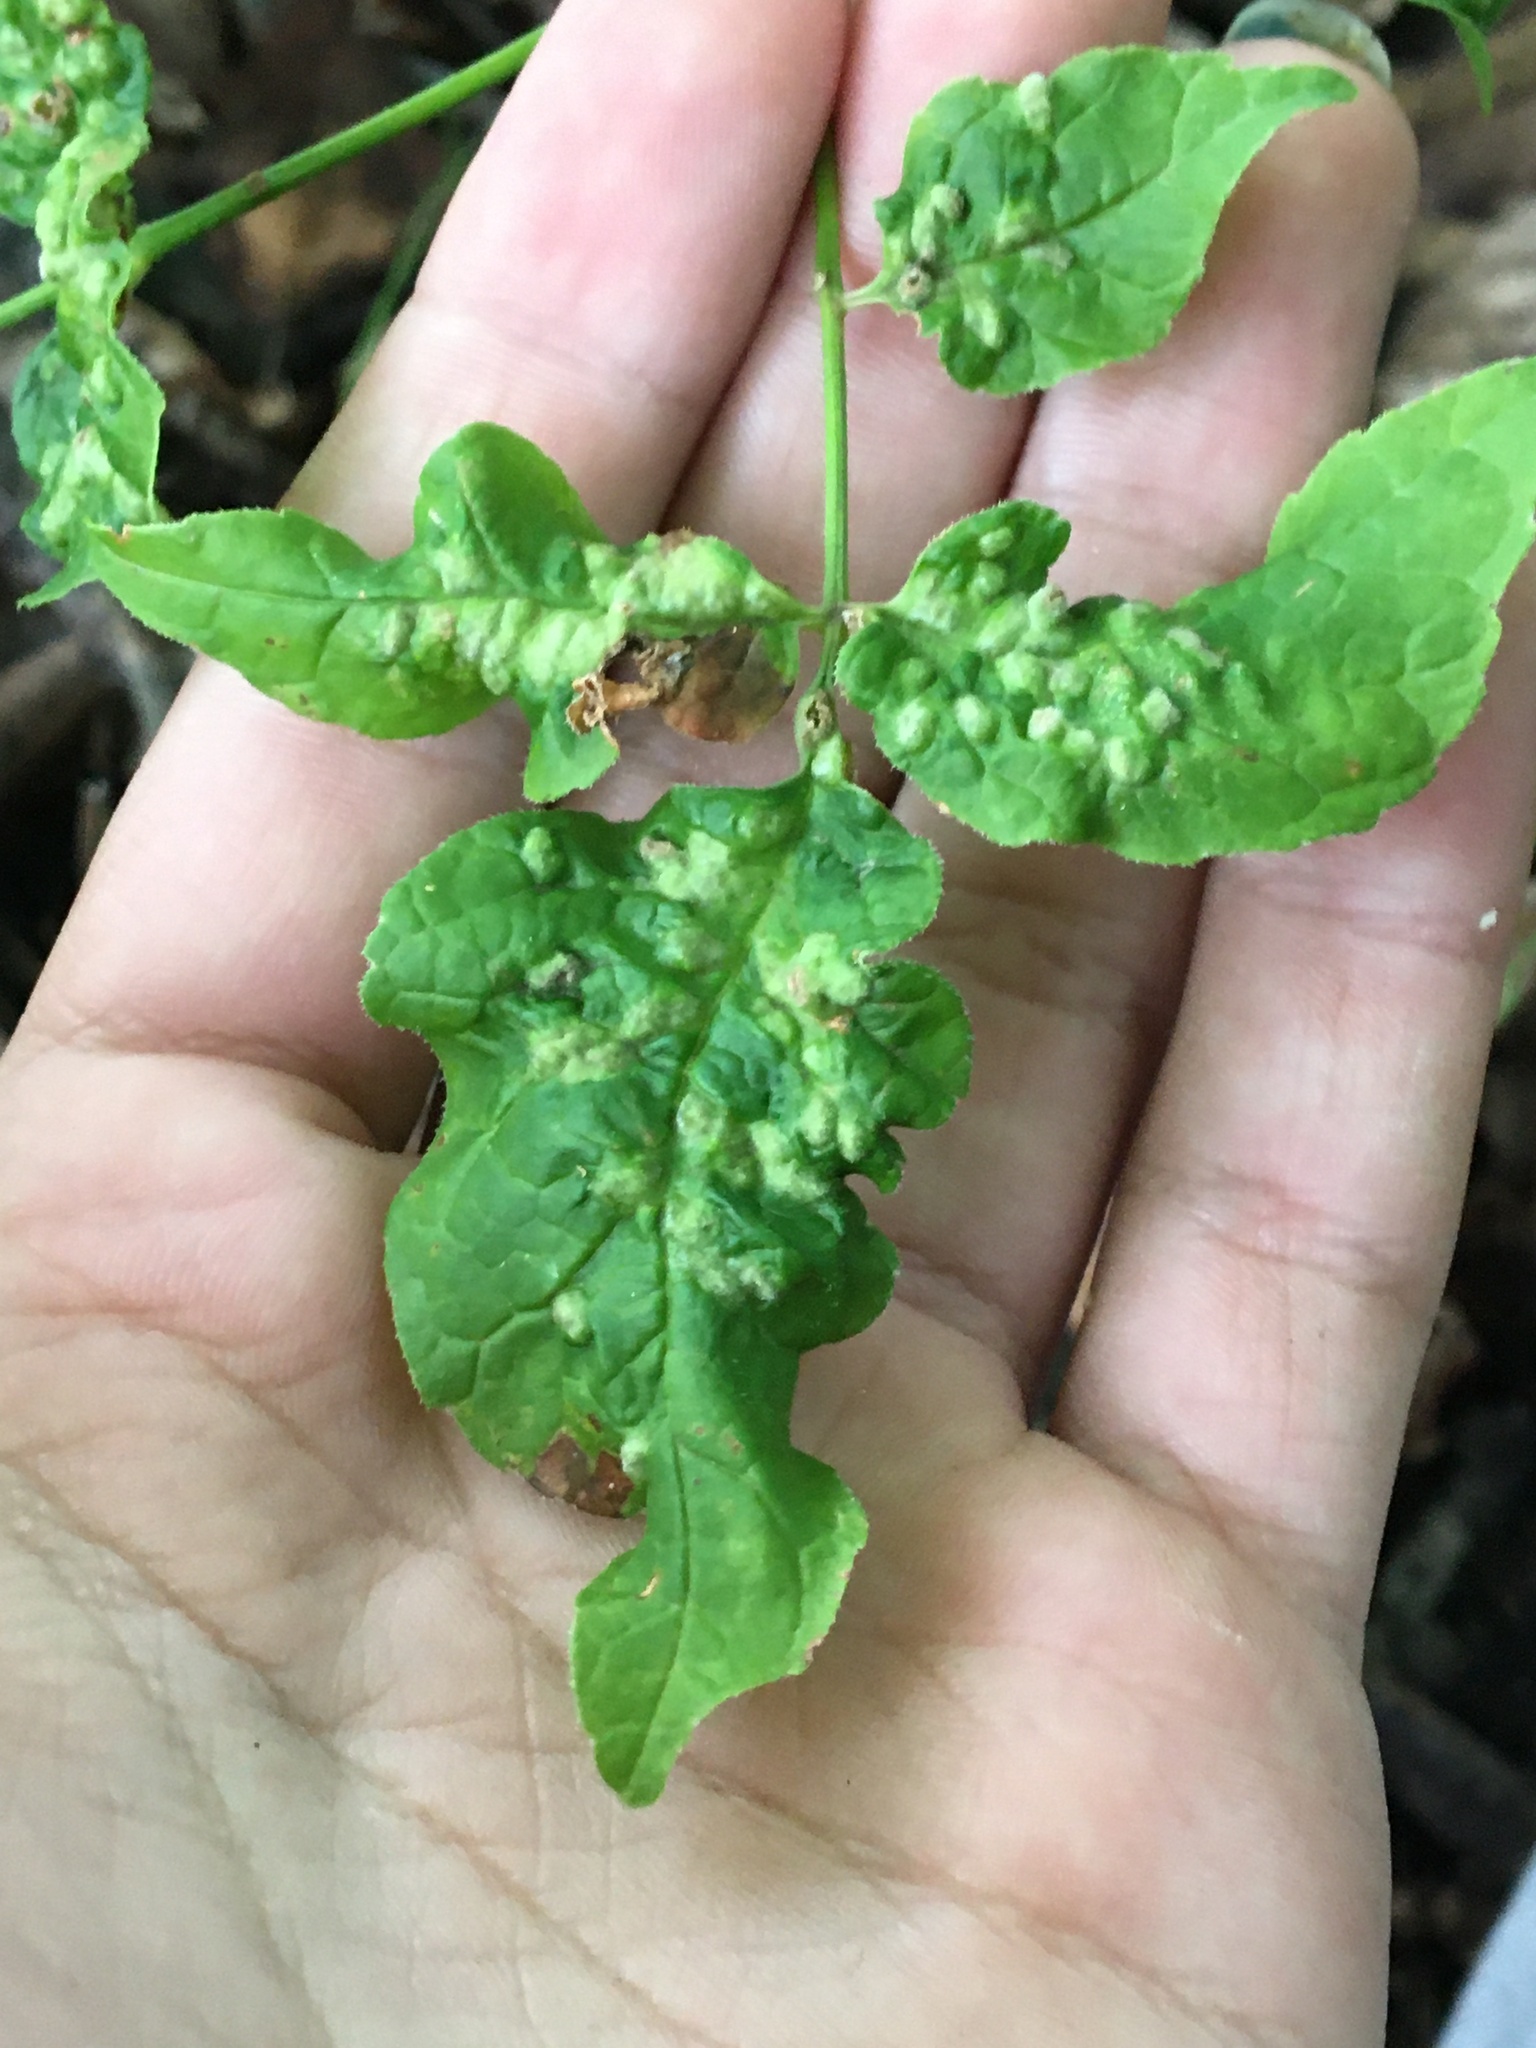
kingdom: Animalia
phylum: Arthropoda
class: Arachnida
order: Trombidiformes
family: Eriophyidae
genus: Aceria
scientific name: Aceria fraxinicola
